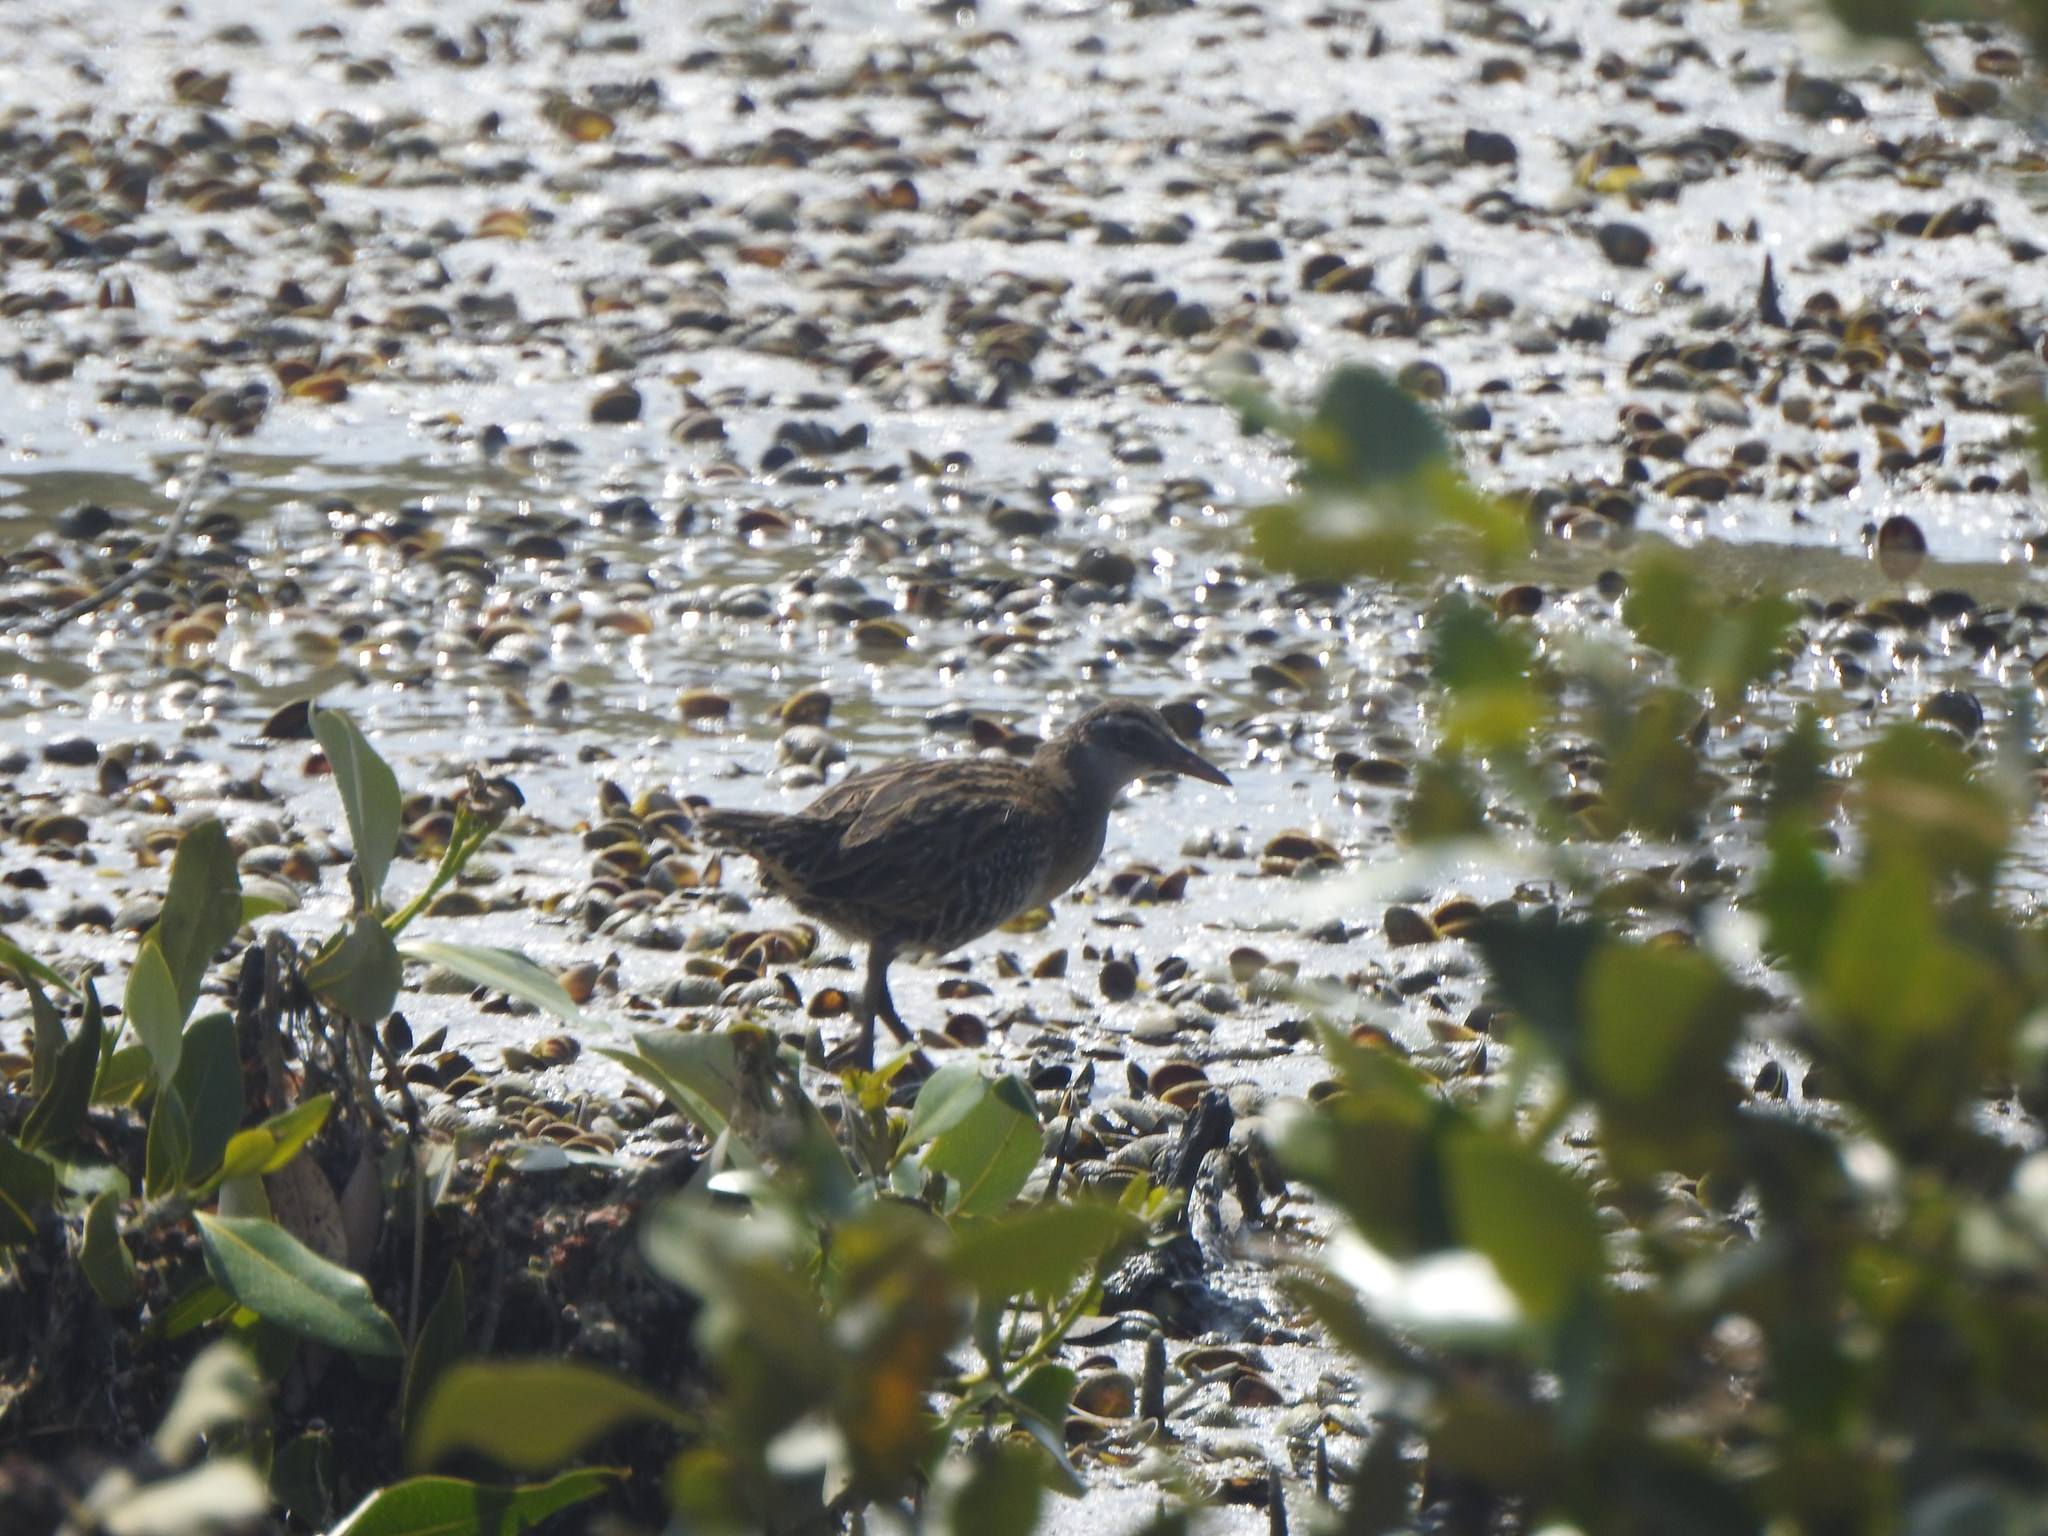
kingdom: Animalia
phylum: Chordata
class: Aves
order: Gruiformes
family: Rallidae
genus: Gallirallus
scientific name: Gallirallus philippensis
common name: Buff-banded rail
